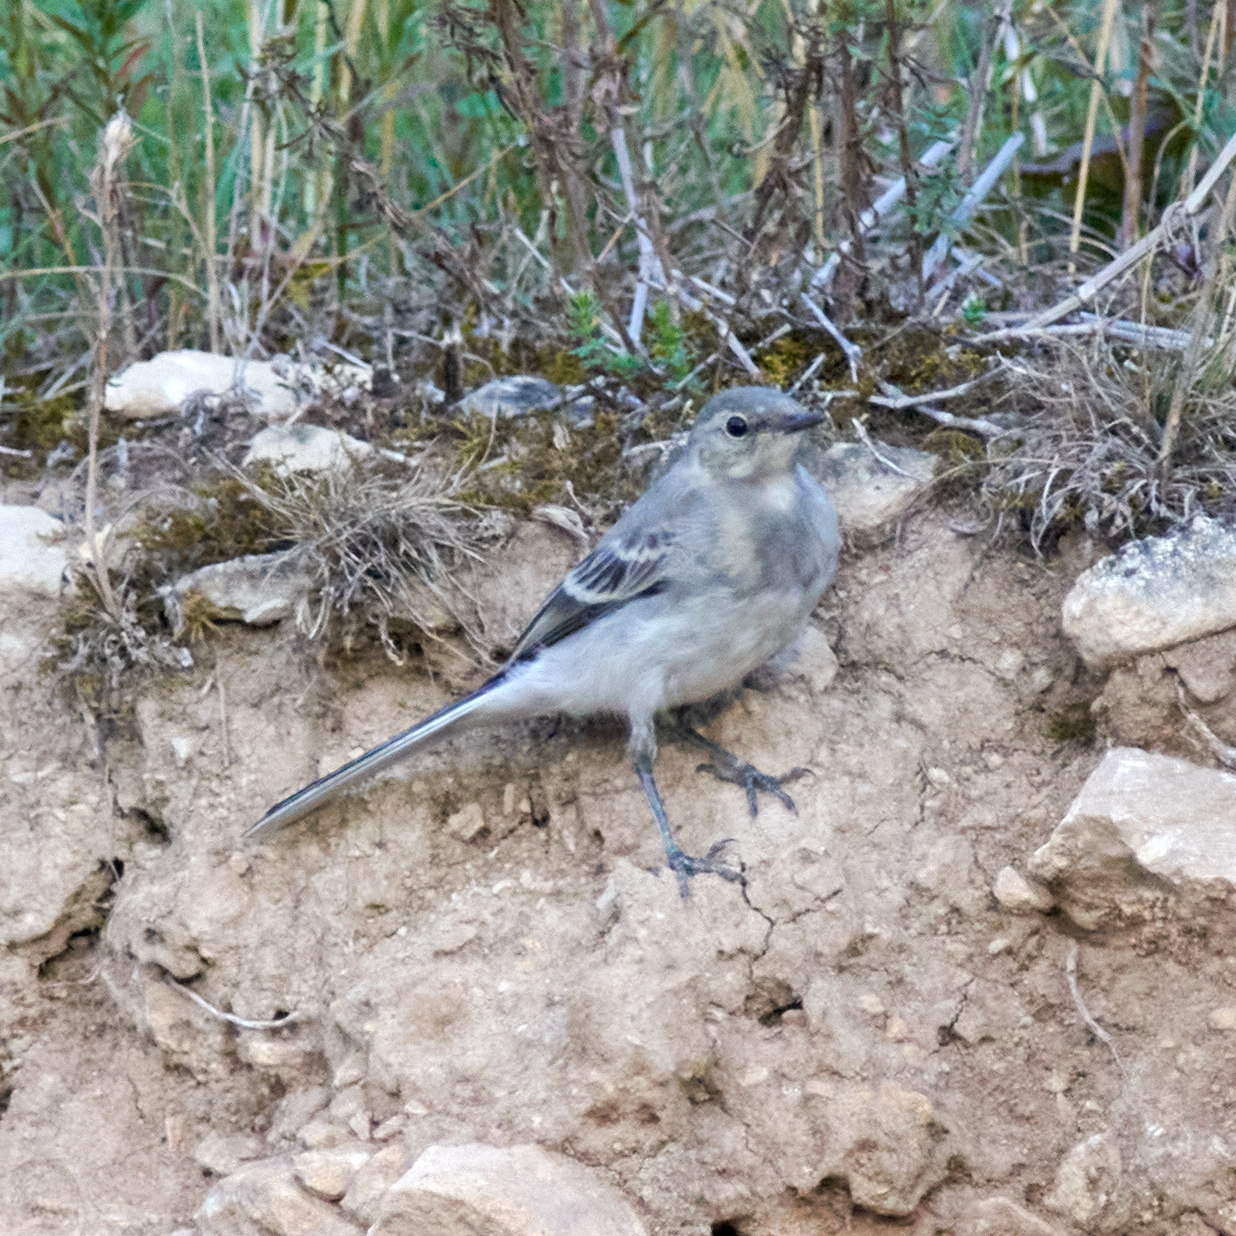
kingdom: Animalia
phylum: Chordata
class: Aves
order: Passeriformes
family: Motacillidae
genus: Motacilla
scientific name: Motacilla alba
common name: White wagtail
